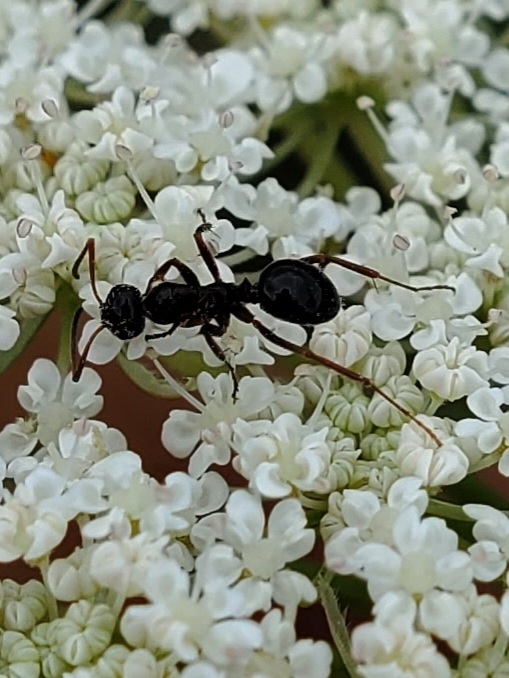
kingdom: Animalia
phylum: Arthropoda
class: Insecta
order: Hymenoptera
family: Formicidae
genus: Formica
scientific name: Formica
